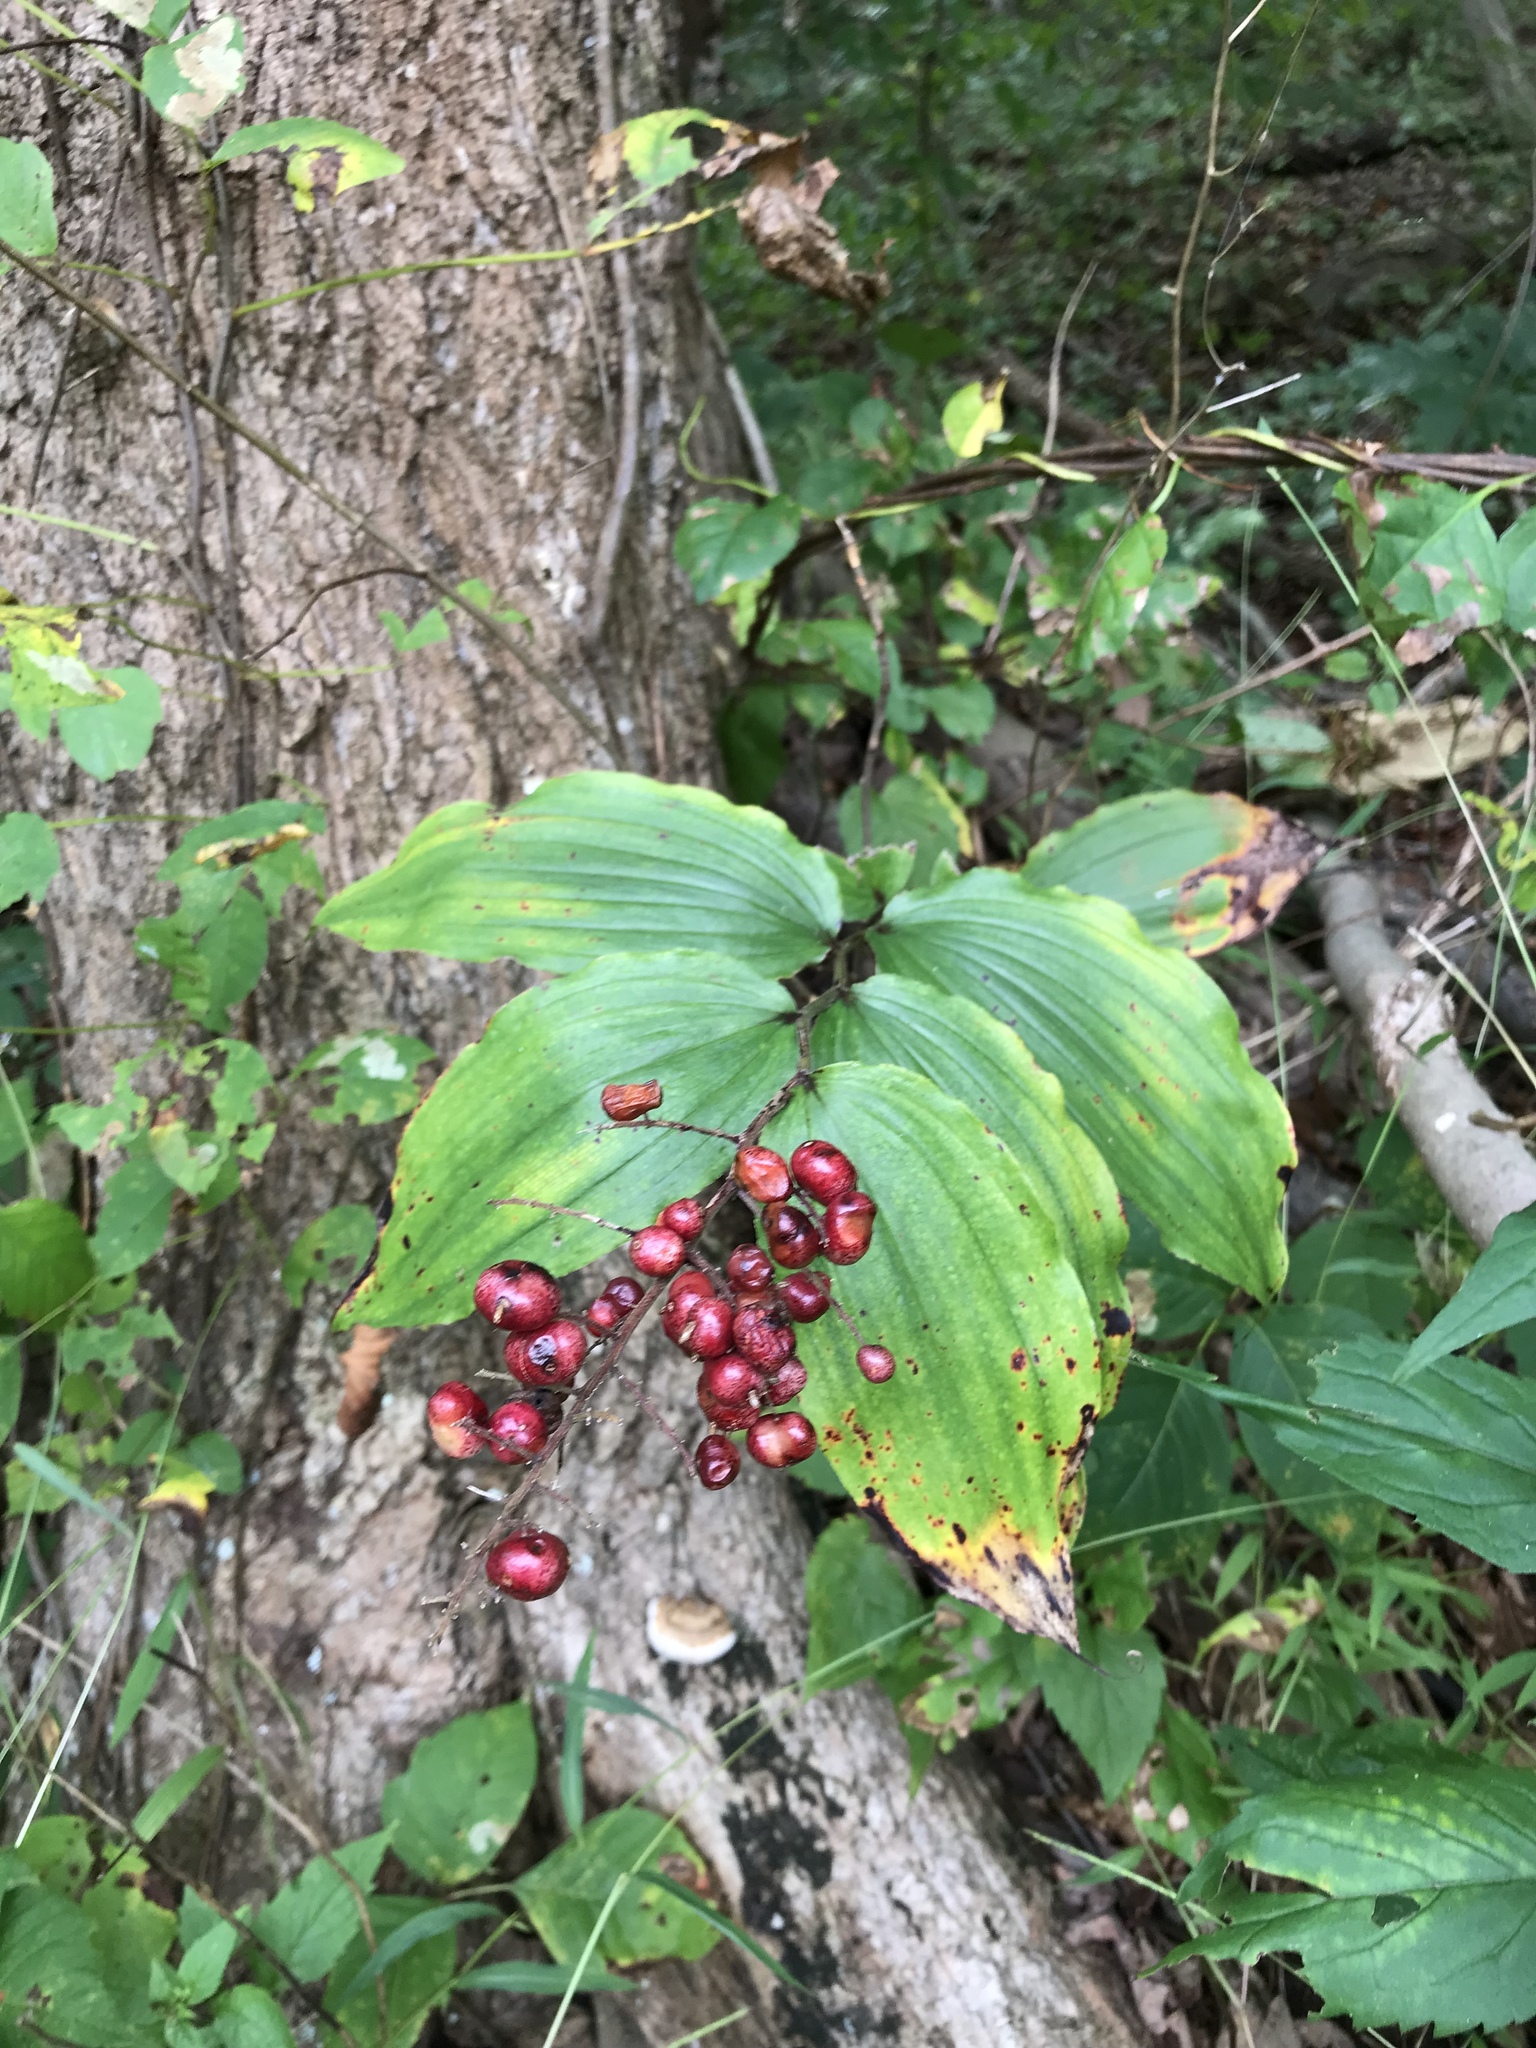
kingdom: Plantae
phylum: Tracheophyta
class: Liliopsida
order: Asparagales
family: Asparagaceae
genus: Maianthemum
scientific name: Maianthemum racemosum
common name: False spikenard
